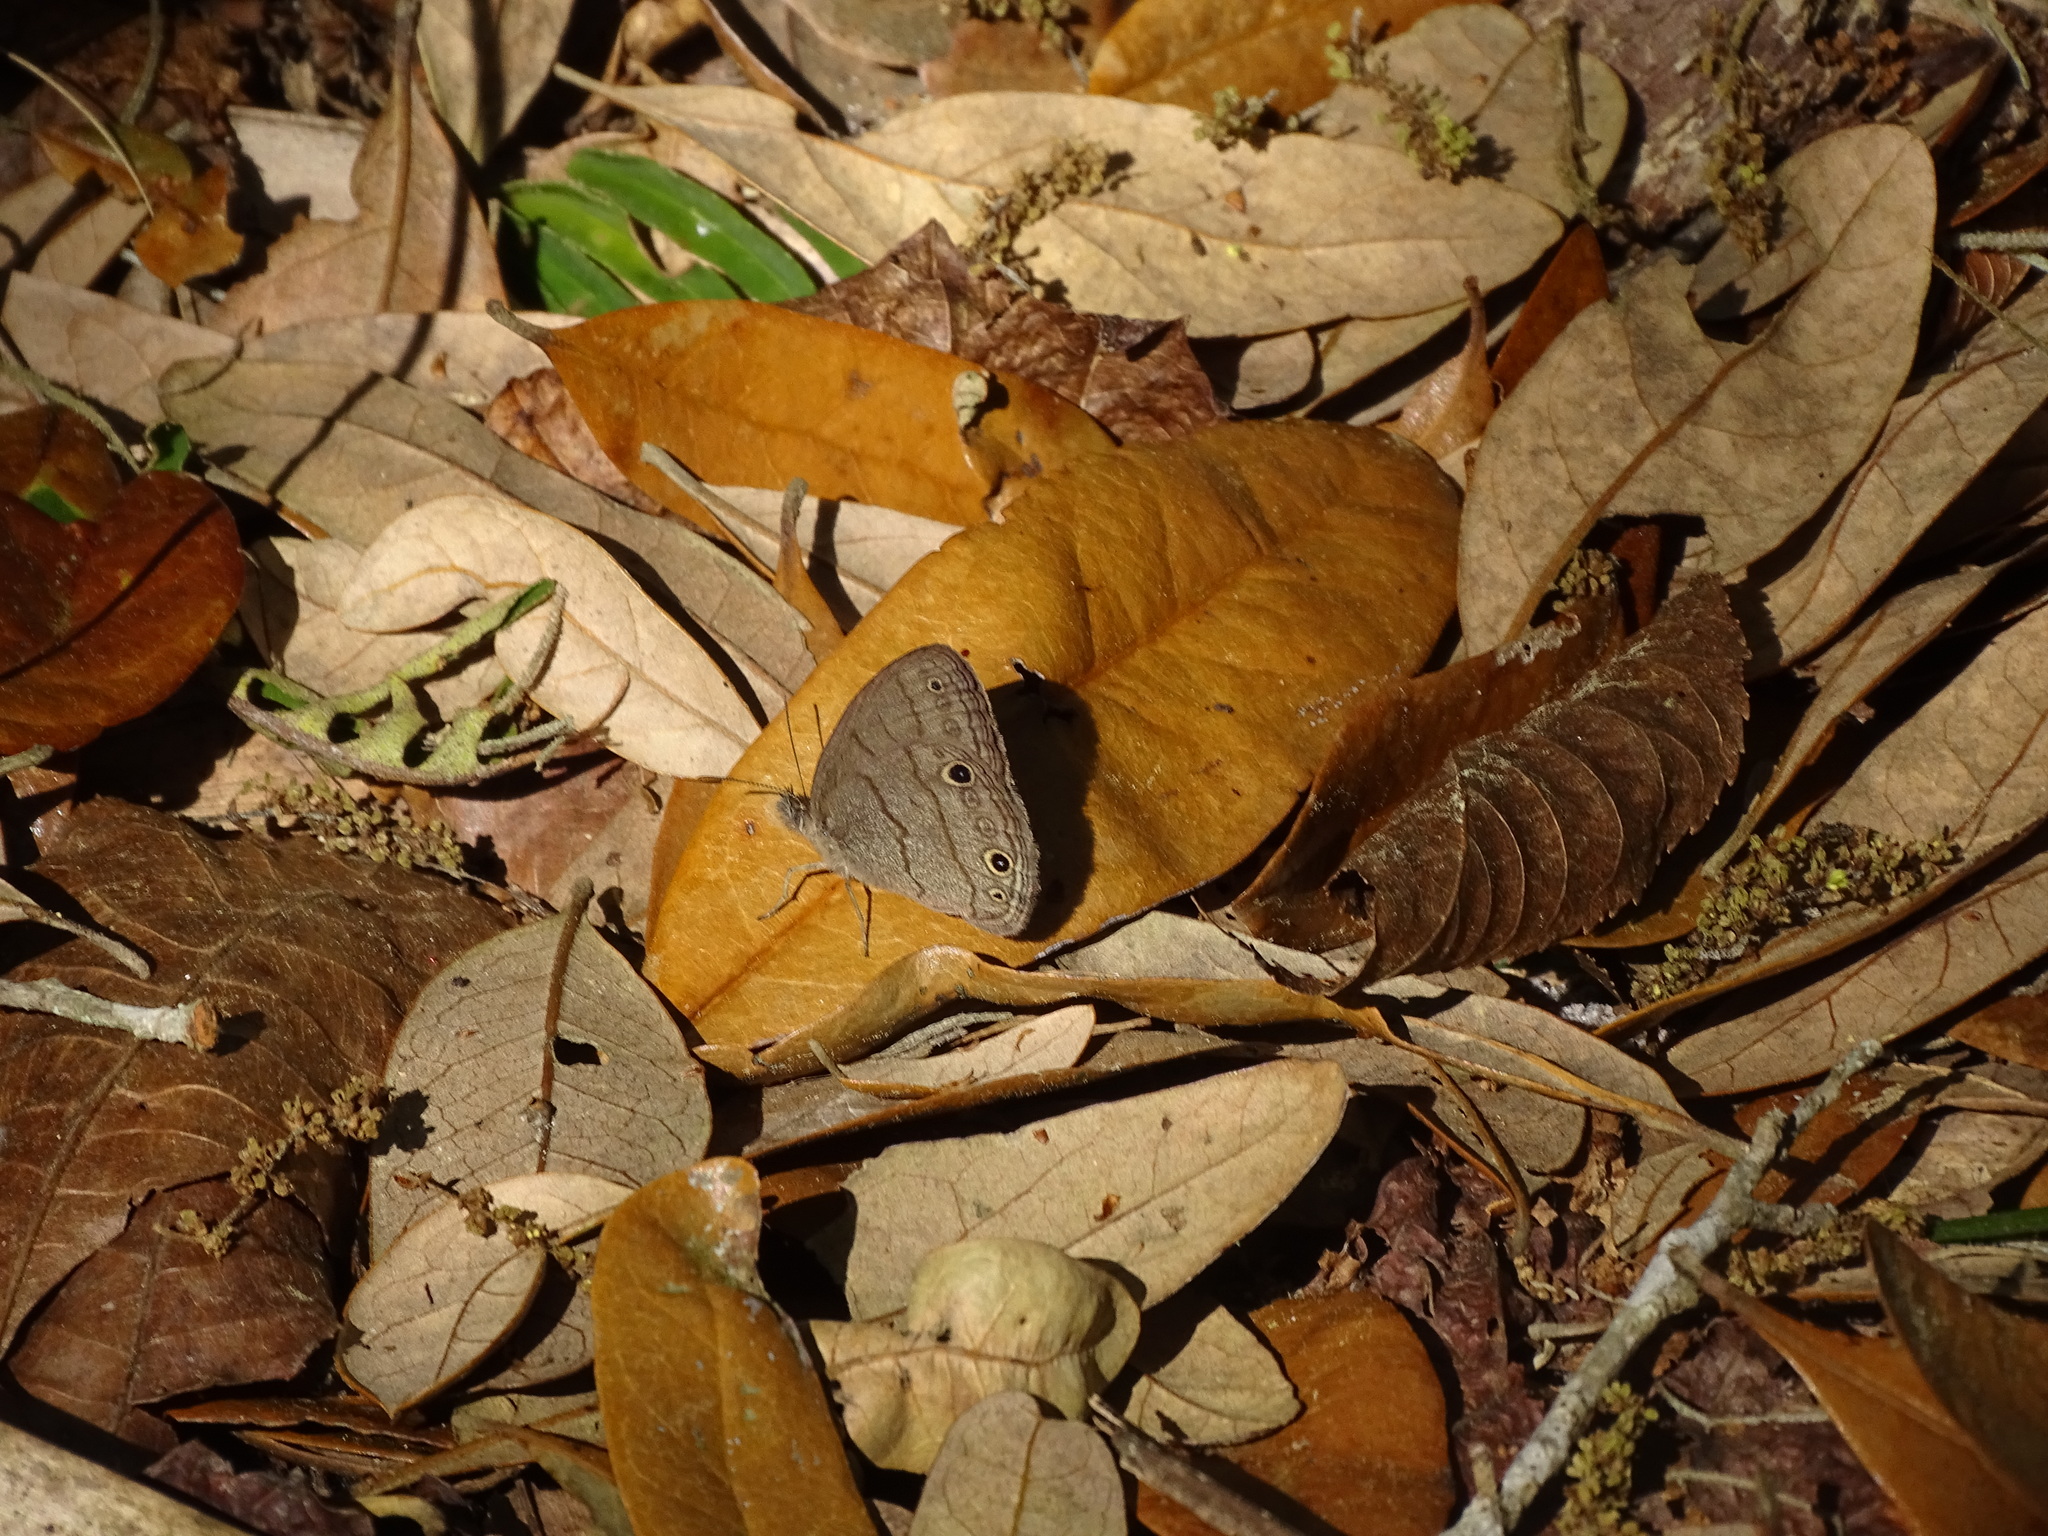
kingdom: Animalia
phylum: Arthropoda
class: Insecta
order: Lepidoptera
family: Nymphalidae
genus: Hermeuptychia
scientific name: Hermeuptychia hermes
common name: Hermes satyr
